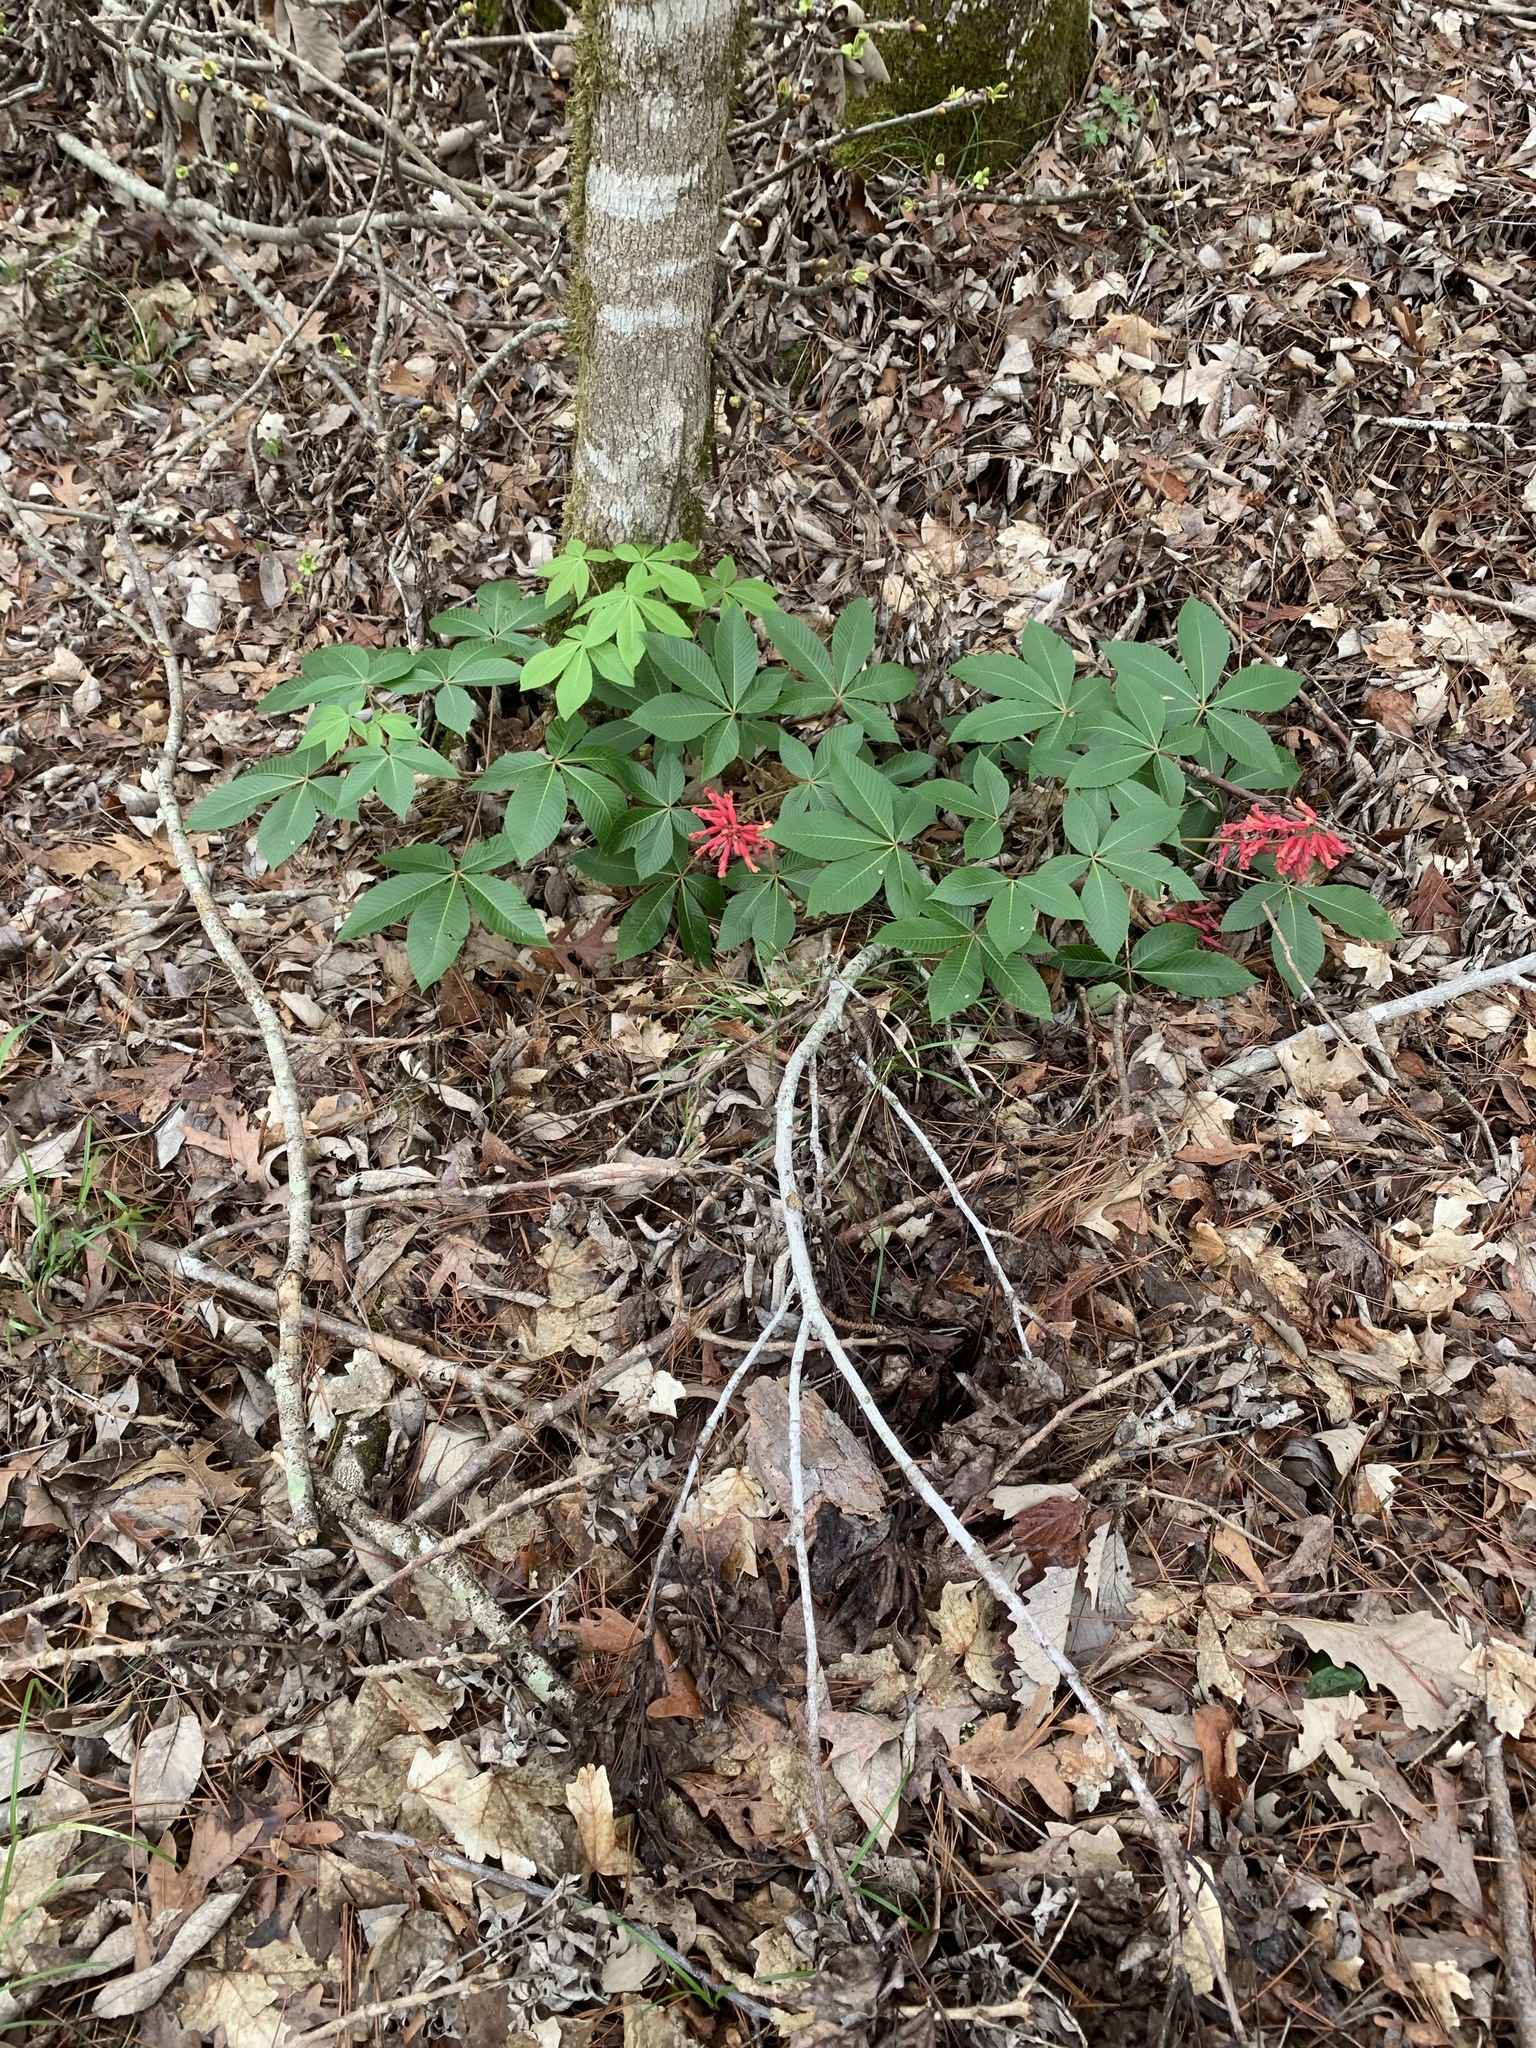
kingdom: Plantae
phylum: Tracheophyta
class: Magnoliopsida
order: Sapindales
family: Sapindaceae
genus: Aesculus
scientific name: Aesculus pavia
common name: Red buckeye
